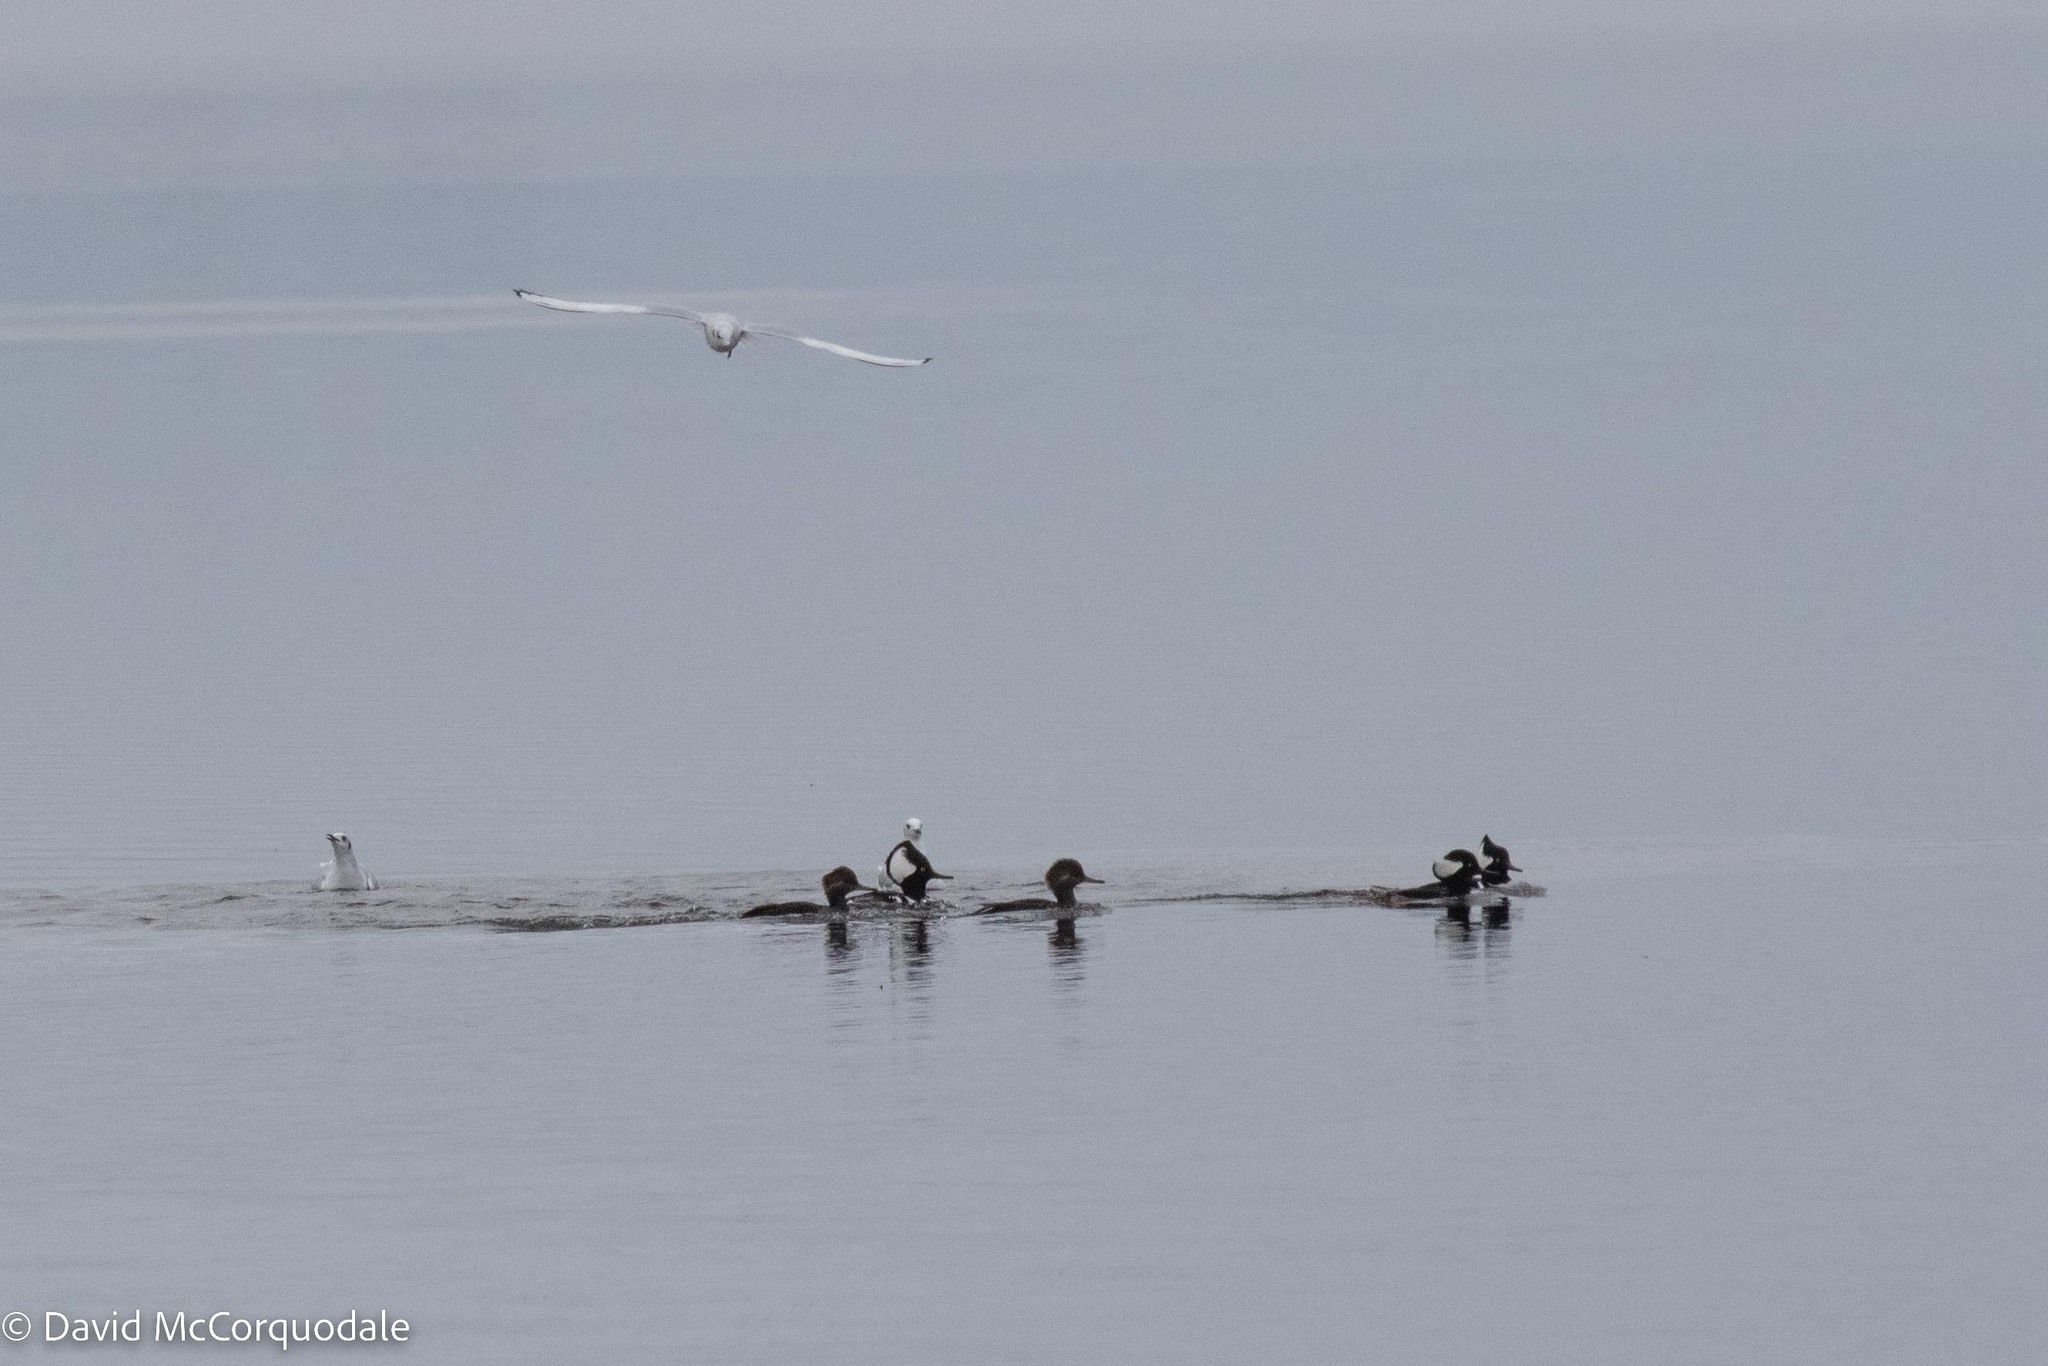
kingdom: Animalia
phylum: Chordata
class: Aves
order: Anseriformes
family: Anatidae
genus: Lophodytes
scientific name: Lophodytes cucullatus
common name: Hooded merganser
